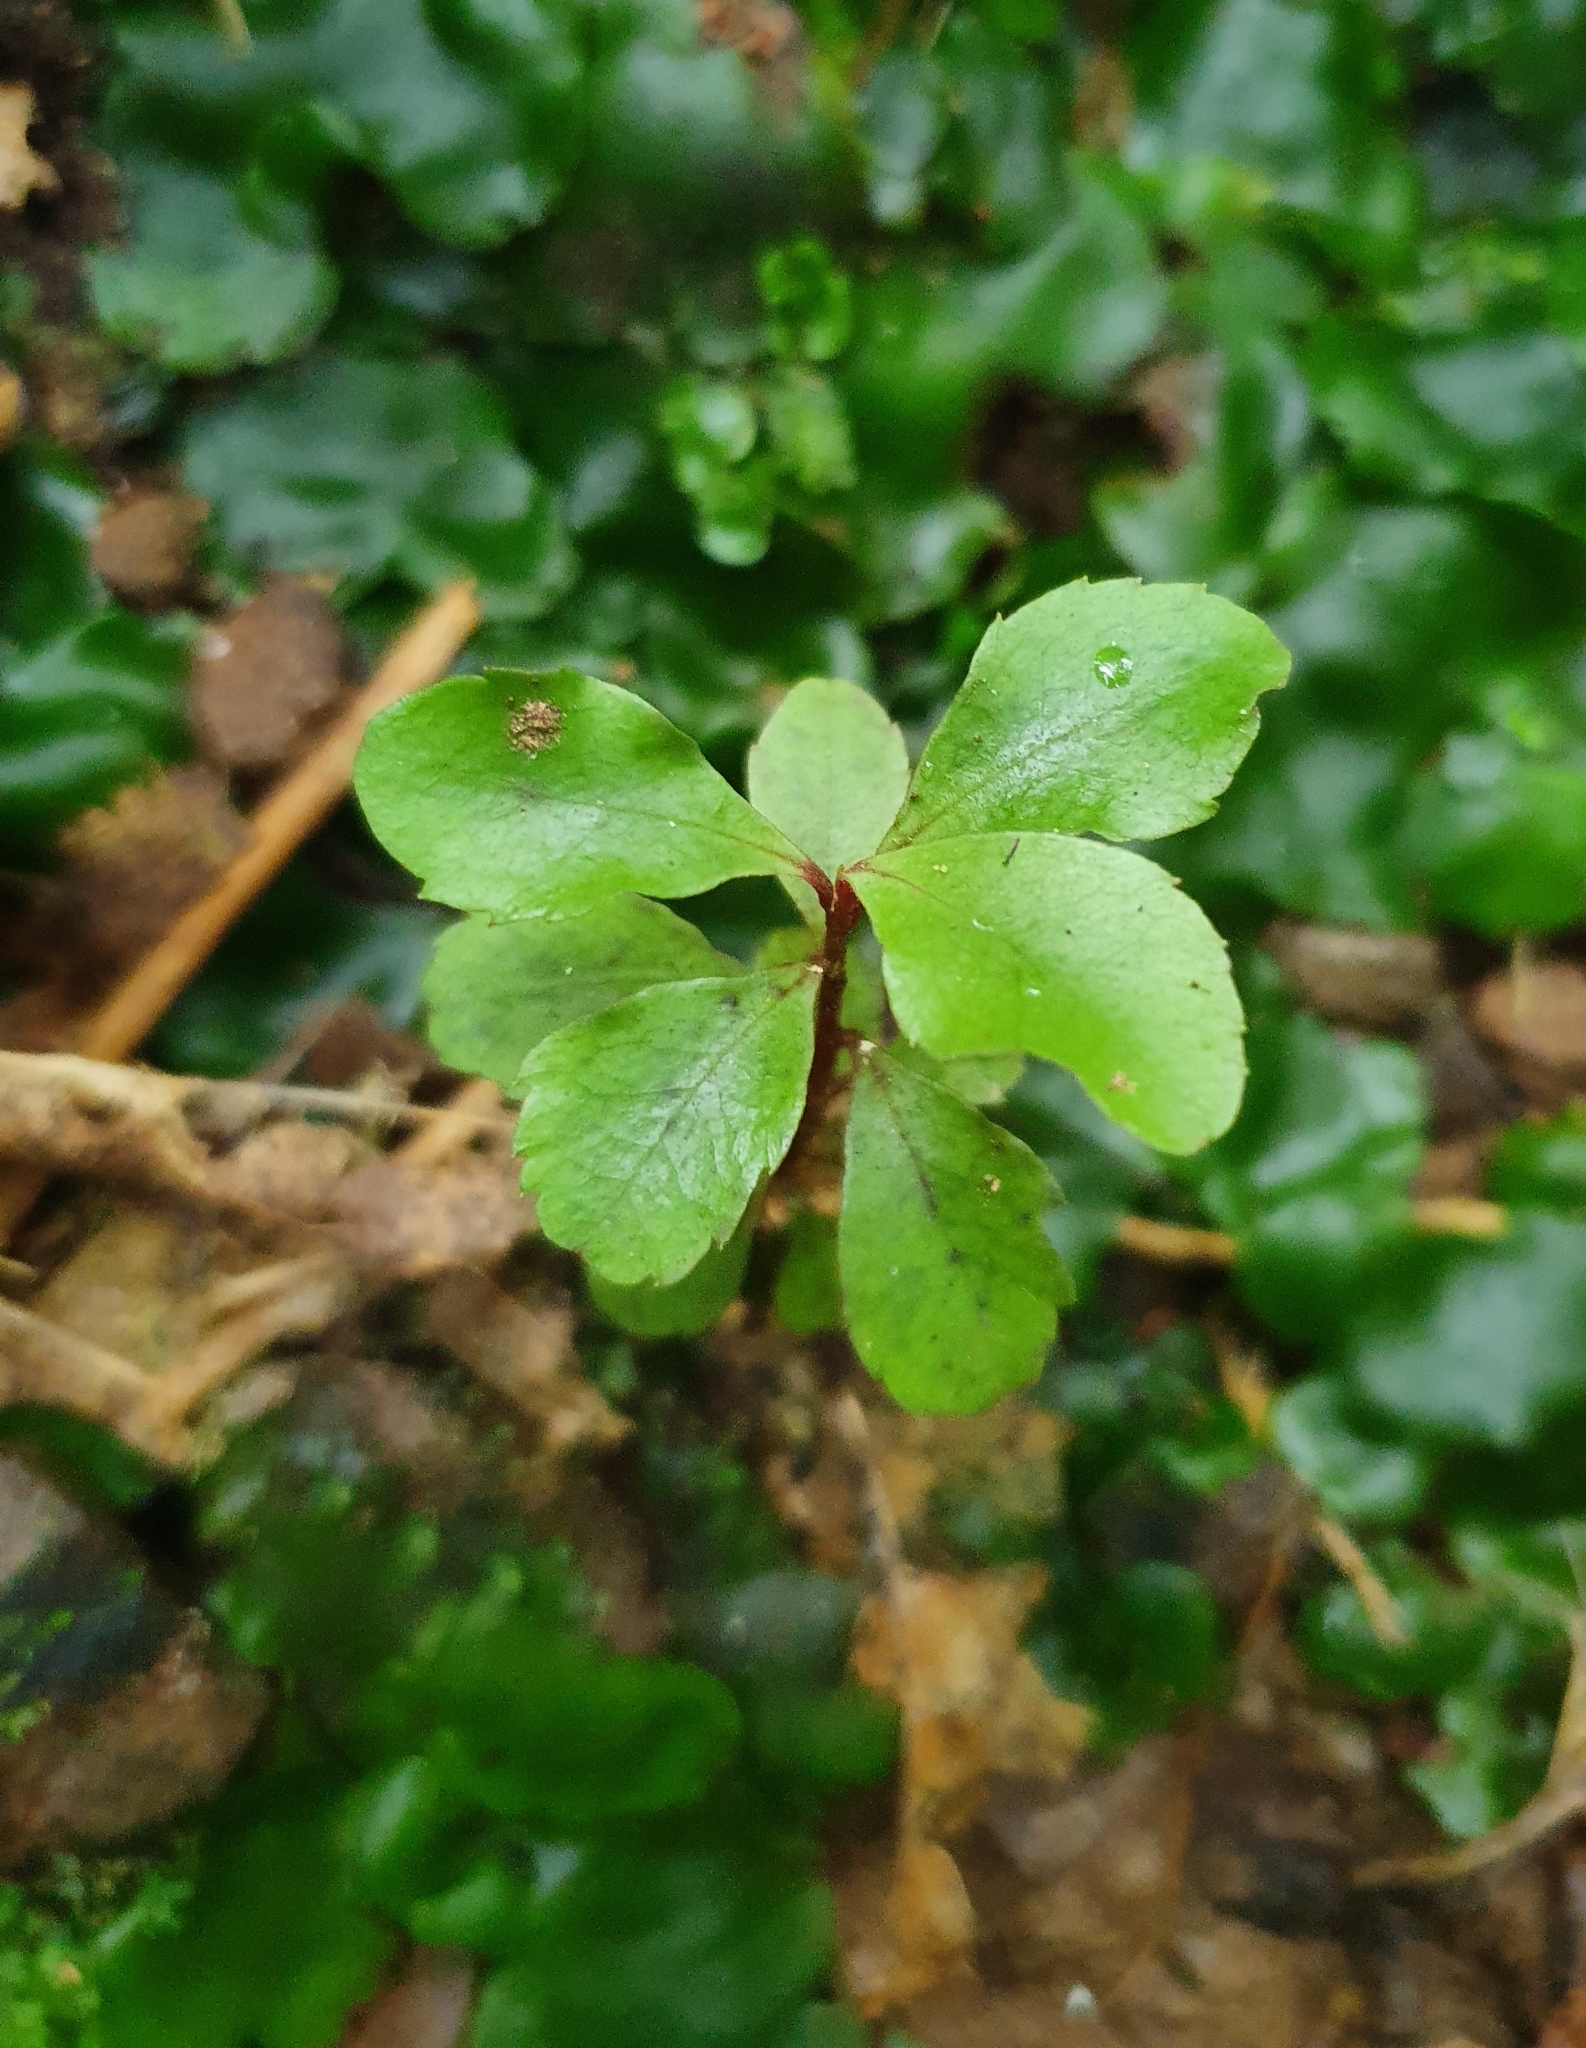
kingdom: Plantae
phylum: Tracheophyta
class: Magnoliopsida
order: Ericales
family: Primulaceae
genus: Myrsine
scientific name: Myrsine australis
